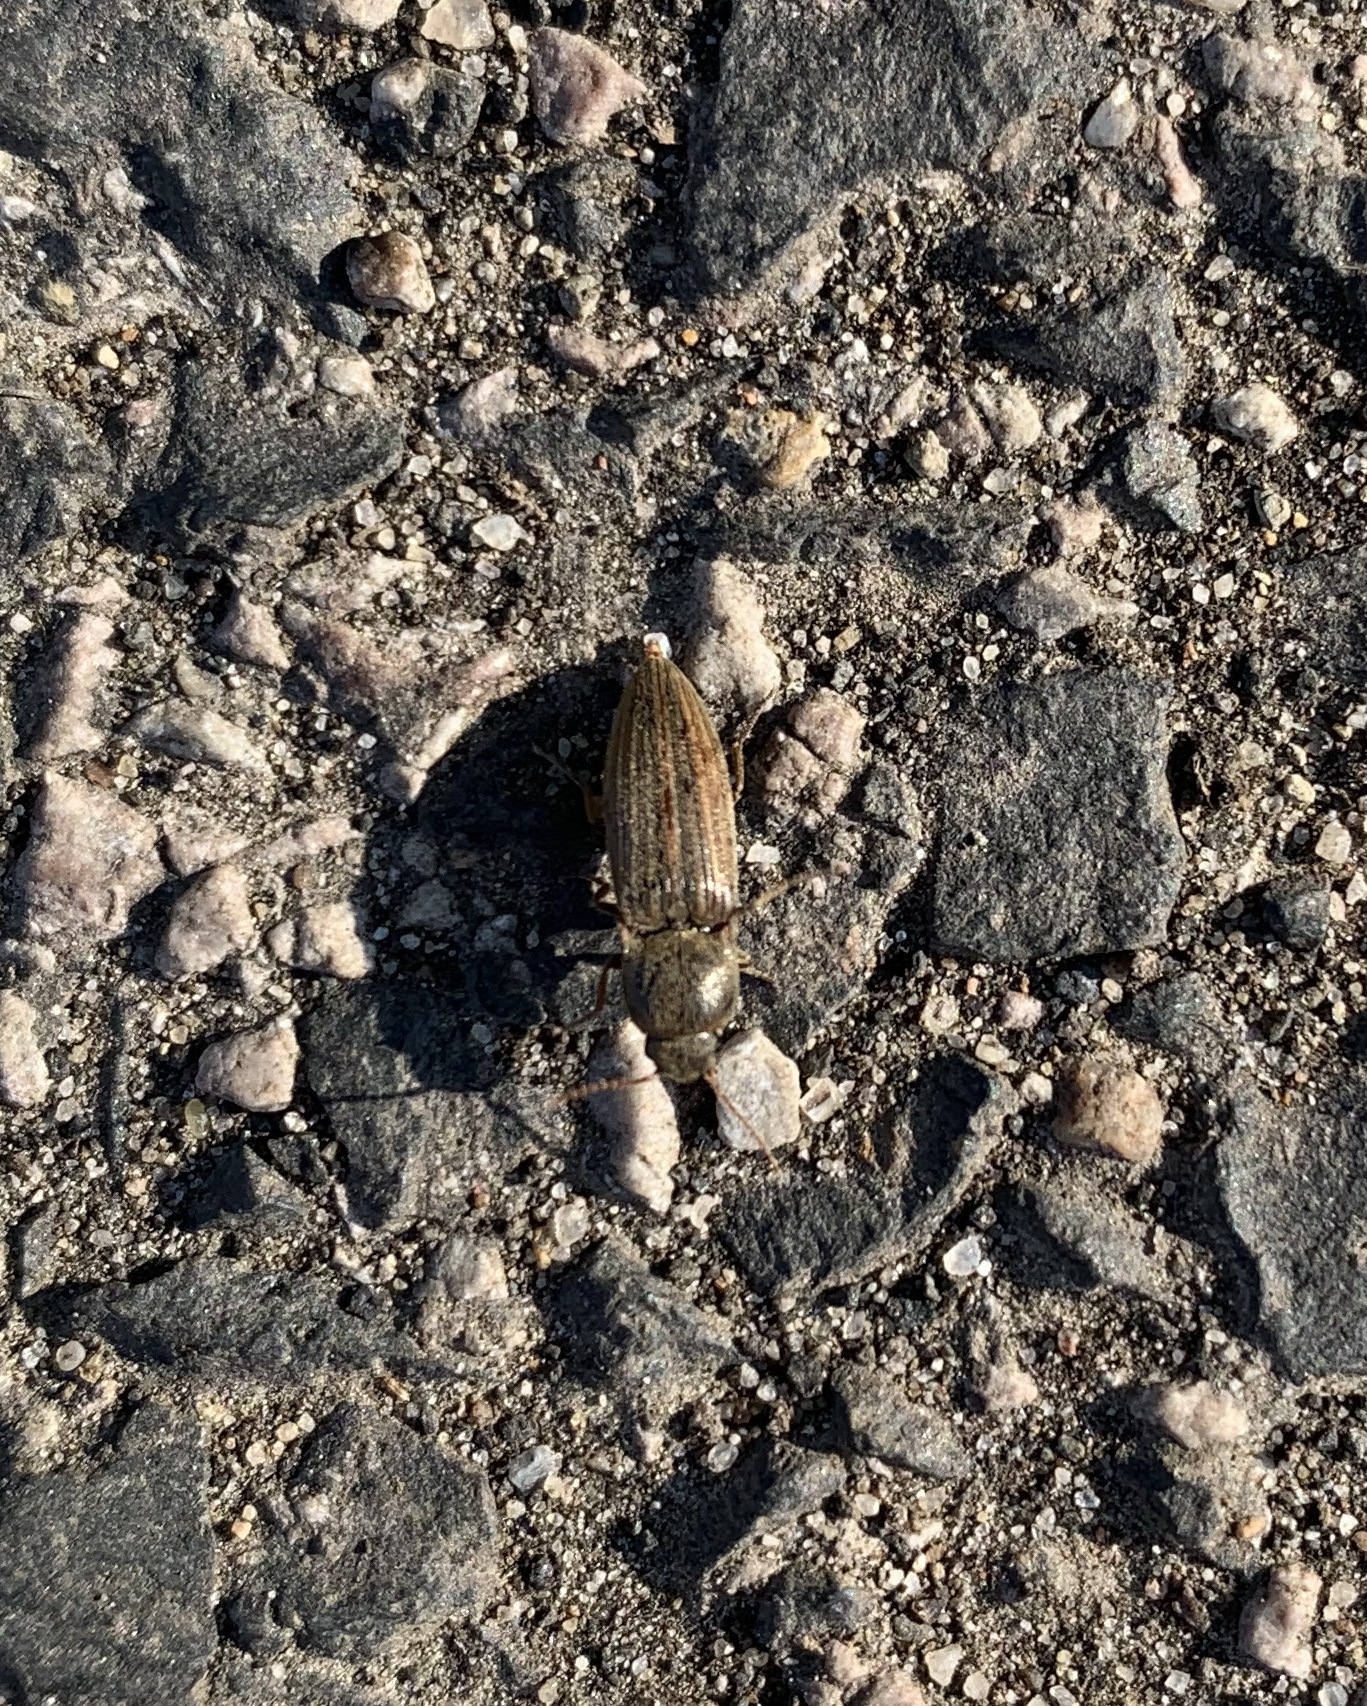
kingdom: Animalia
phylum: Arthropoda
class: Insecta
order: Coleoptera
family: Elateridae
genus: Agriotes
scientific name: Agriotes lineatus
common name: Lined click beetle
